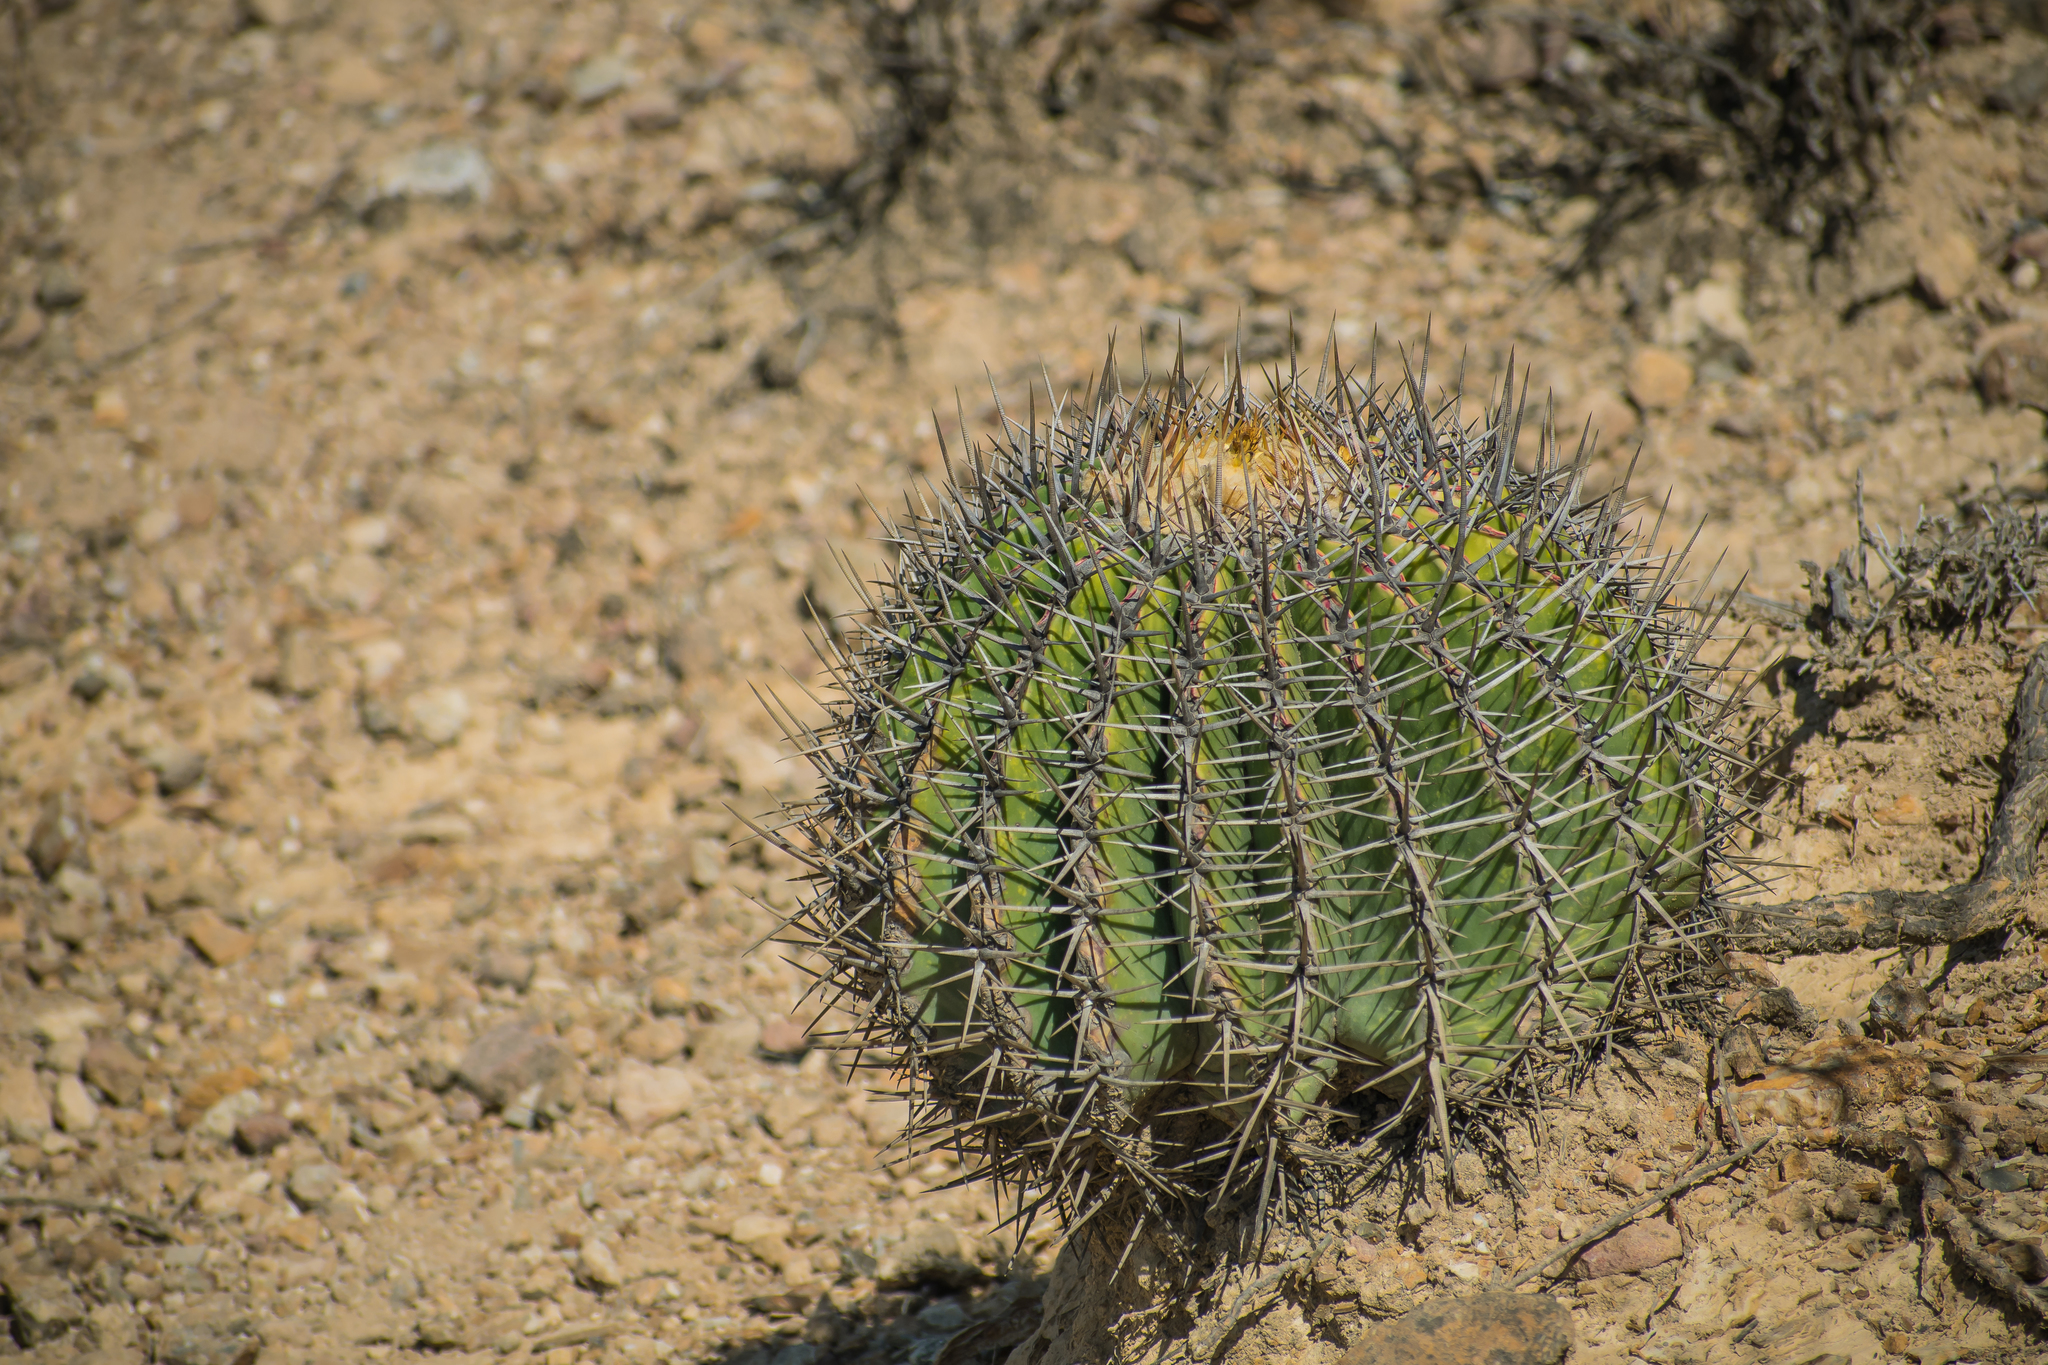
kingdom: Plantae
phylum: Tracheophyta
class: Magnoliopsida
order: Caryophyllales
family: Cactaceae
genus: Echinocactus
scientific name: Echinocactus platyacanthus
